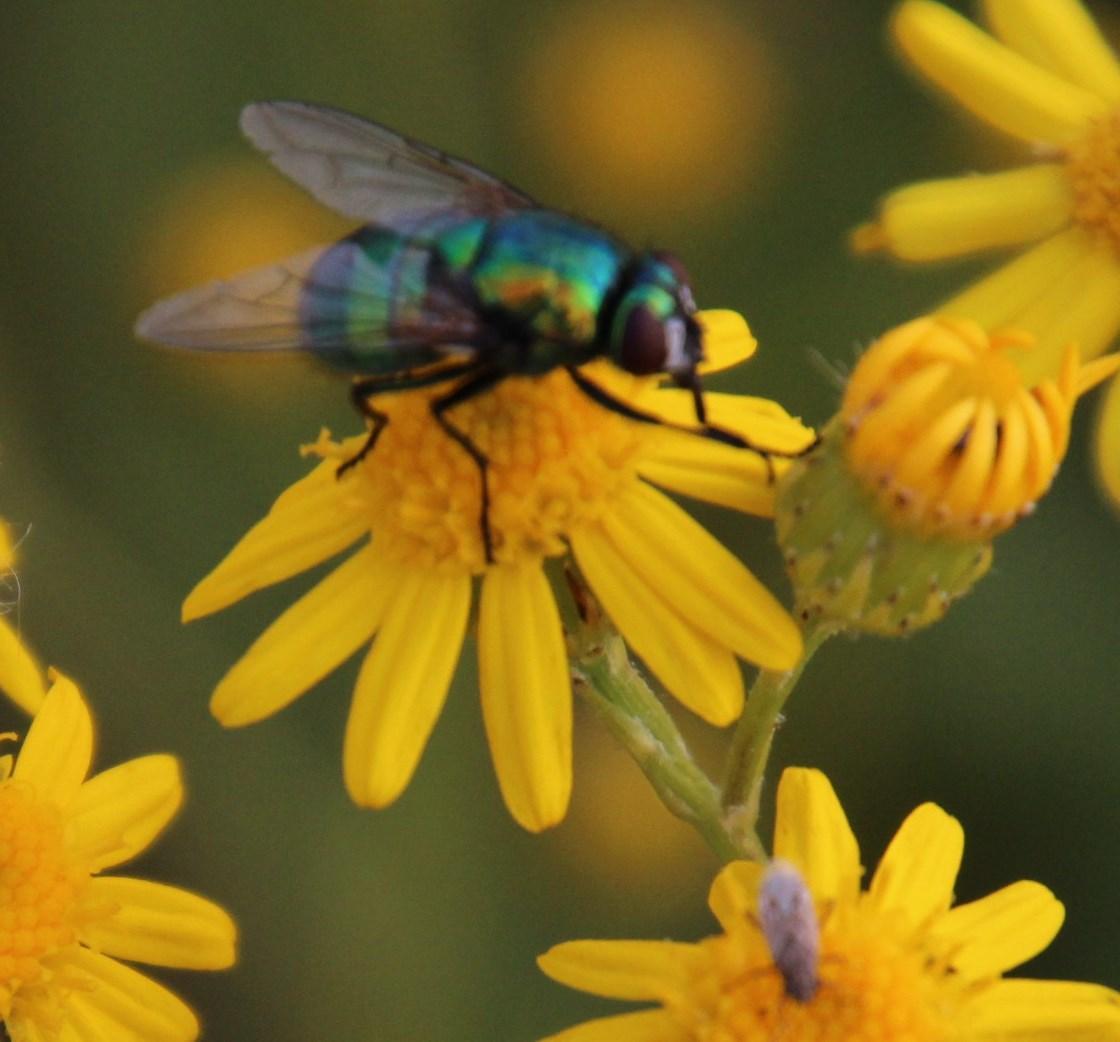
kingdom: Plantae
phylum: Tracheophyta
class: Magnoliopsida
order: Asterales
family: Asteraceae
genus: Senecio
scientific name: Senecio pterophorus
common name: Shoddy ragwort
